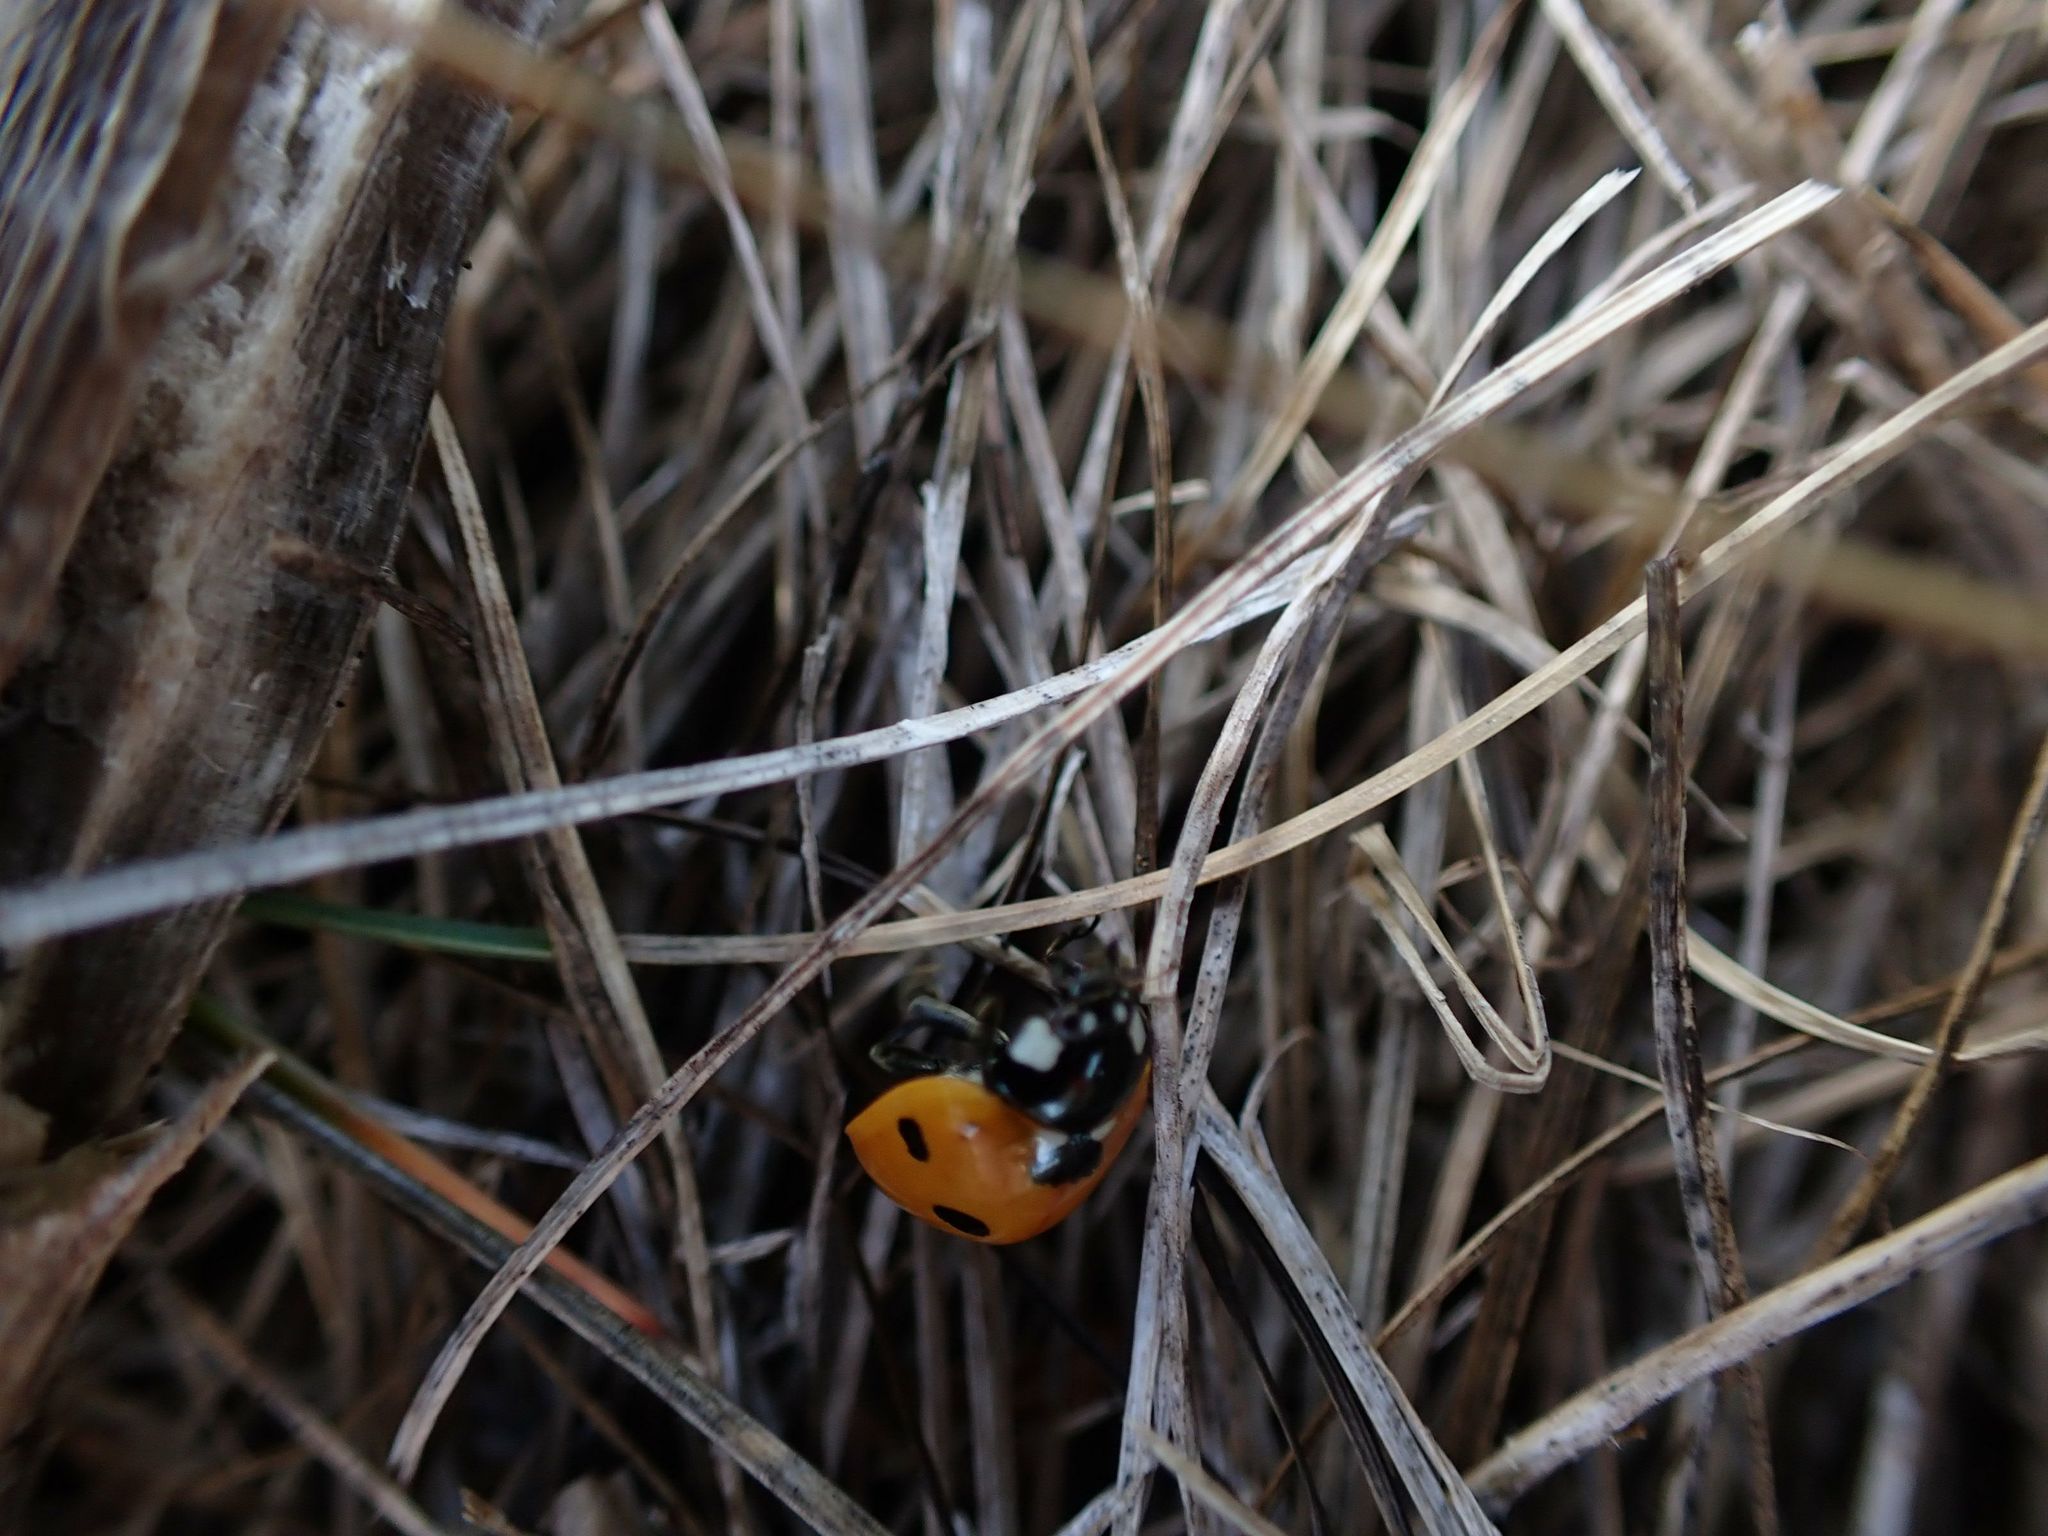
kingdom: Animalia
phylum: Arthropoda
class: Insecta
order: Coleoptera
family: Coccinellidae
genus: Coccinella
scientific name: Coccinella septempunctata
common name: Sevenspotted lady beetle
